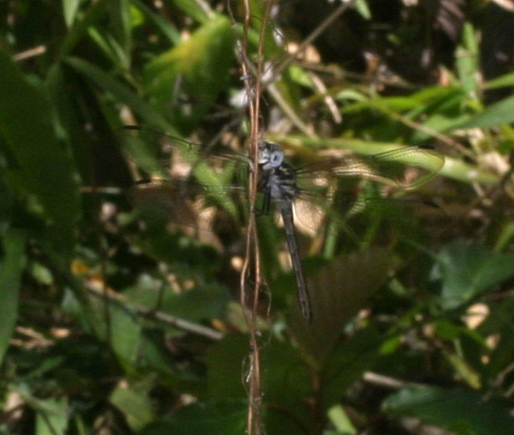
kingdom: Animalia
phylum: Arthropoda
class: Insecta
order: Odonata
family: Libellulidae
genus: Cratilla
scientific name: Cratilla lineata
